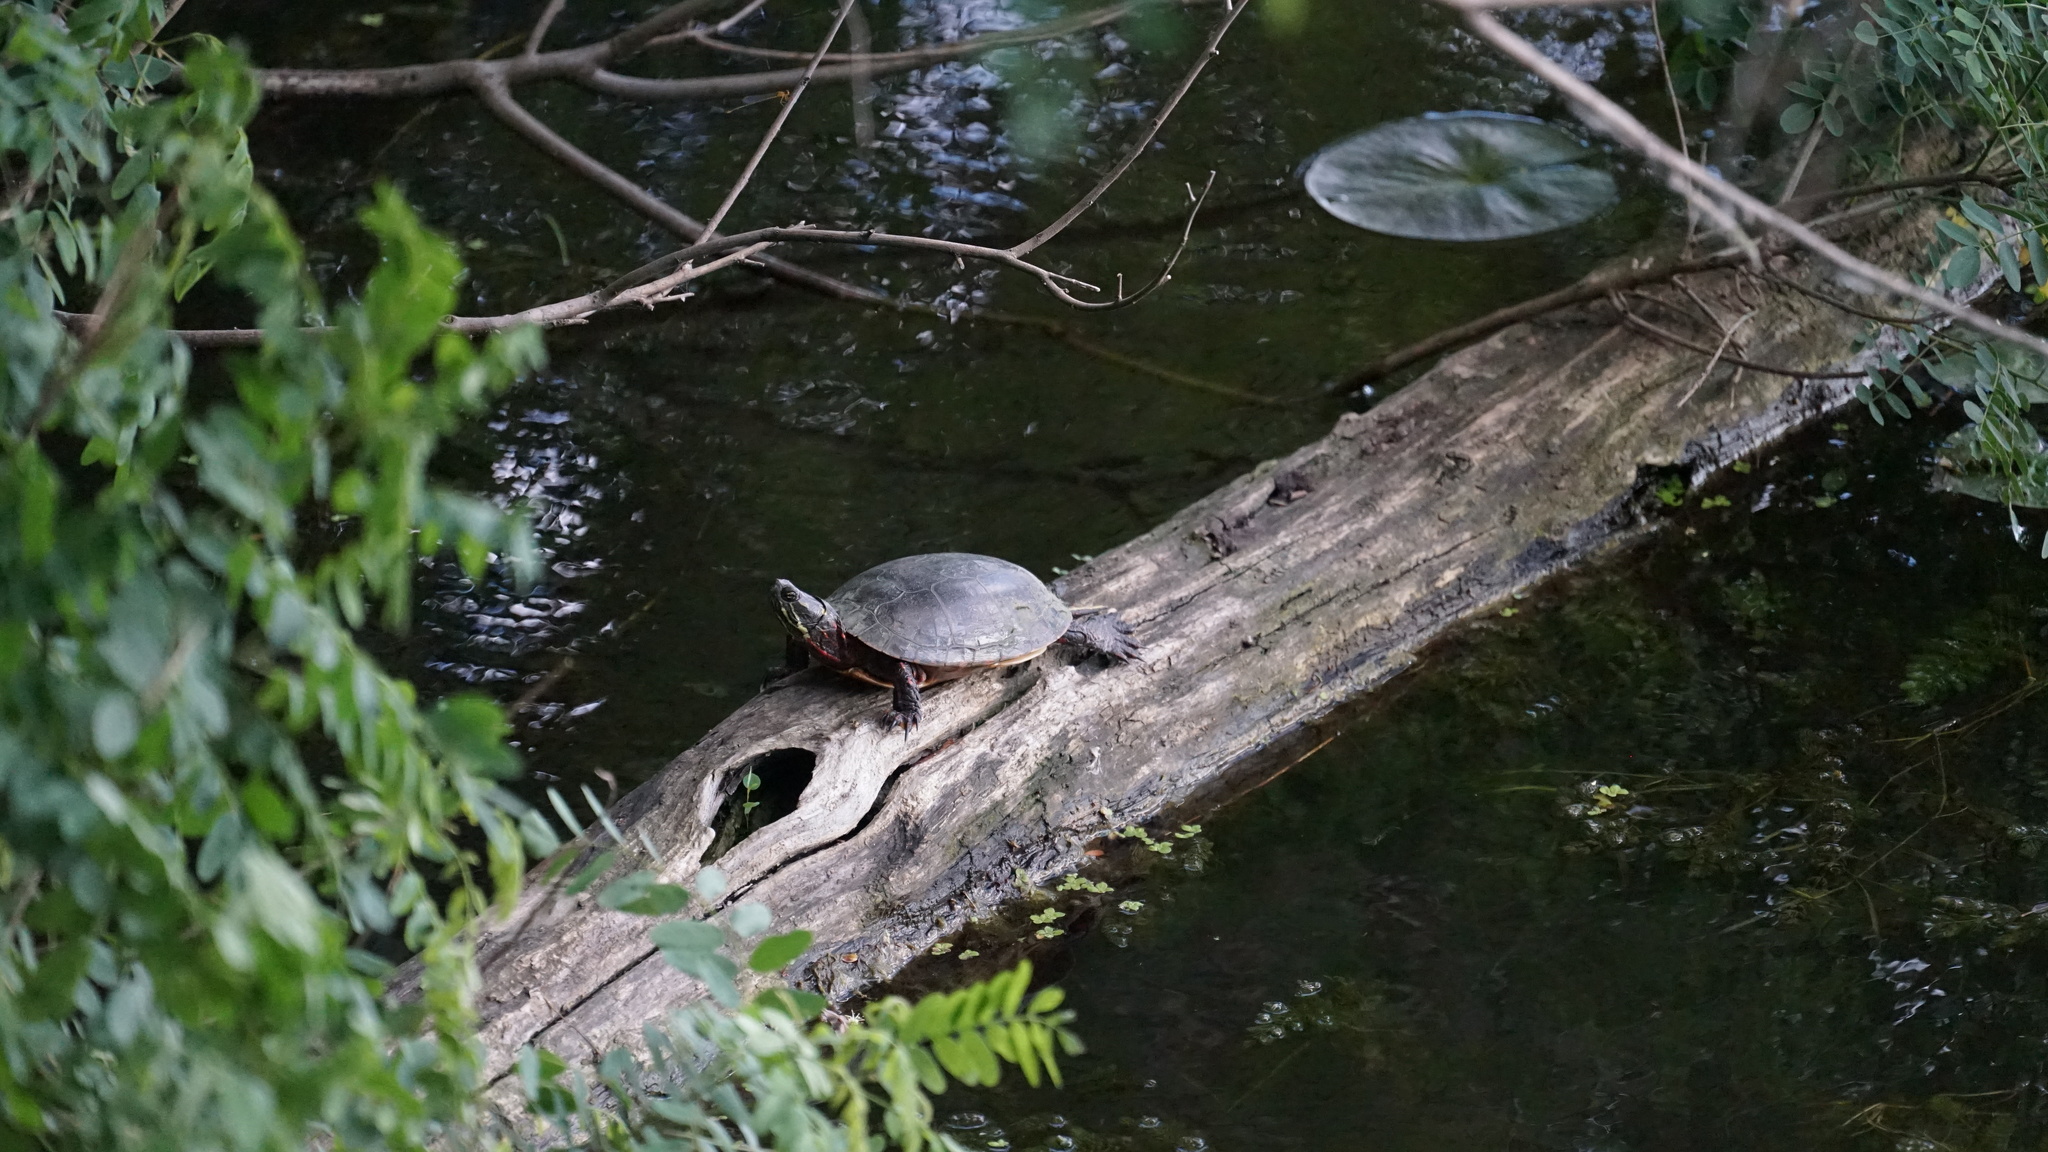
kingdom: Animalia
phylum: Chordata
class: Testudines
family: Emydidae
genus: Chrysemys
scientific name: Chrysemys picta
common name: Painted turtle
